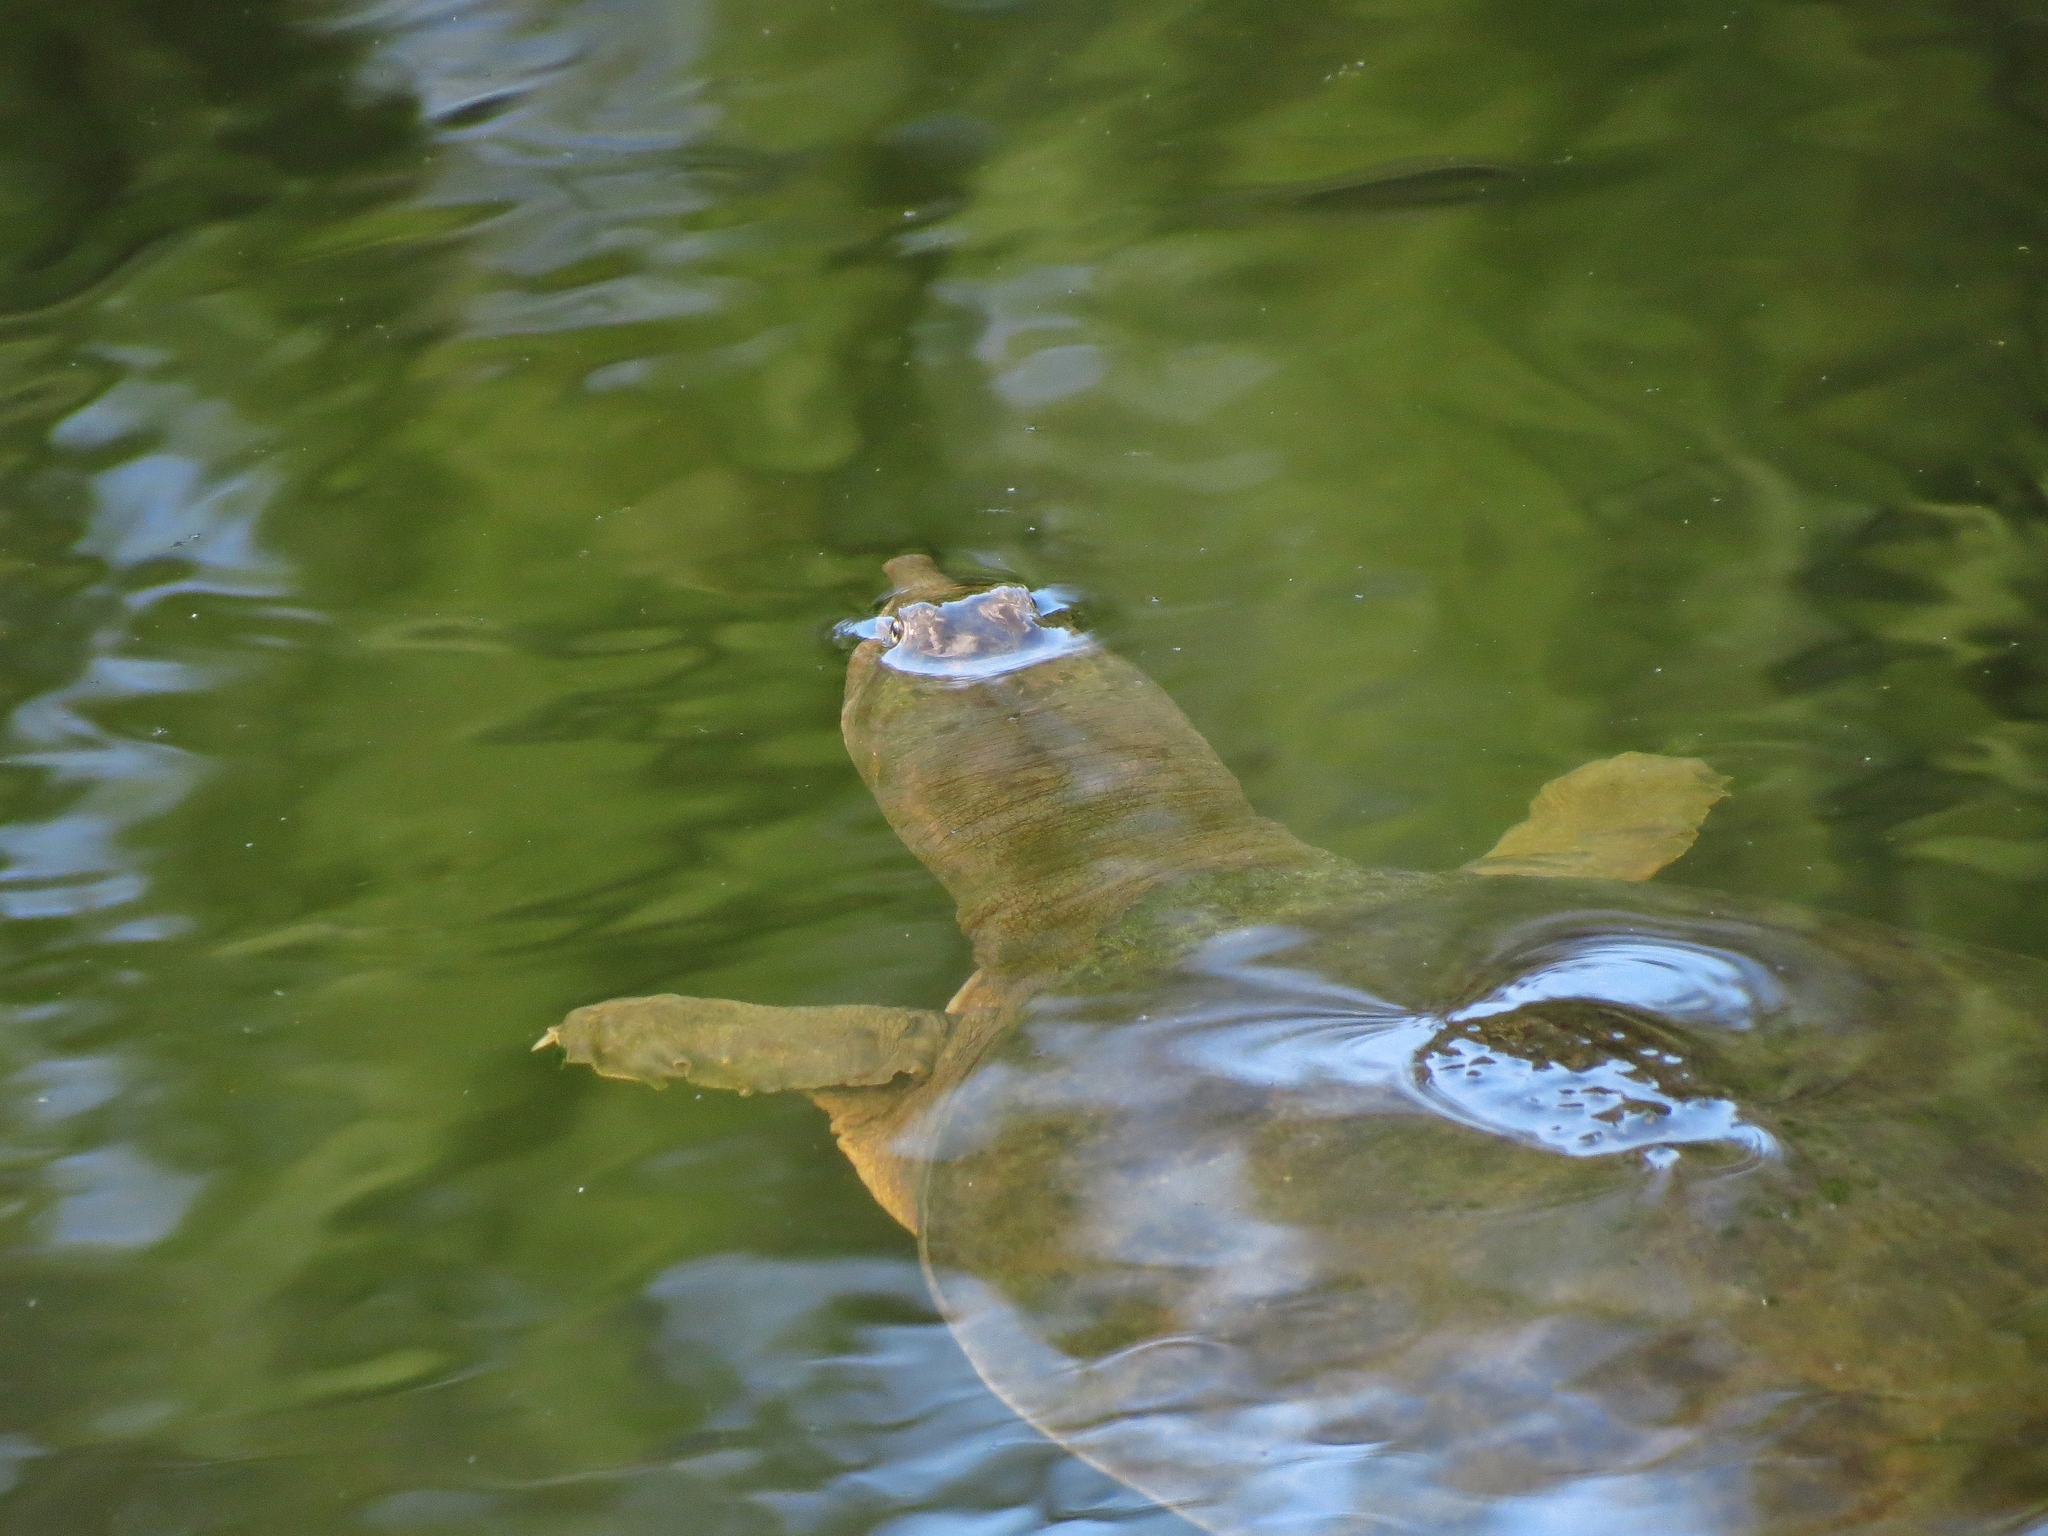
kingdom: Animalia
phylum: Chordata
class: Testudines
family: Trionychidae
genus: Apalone
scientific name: Apalone ferox
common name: Florida softshell turtle
